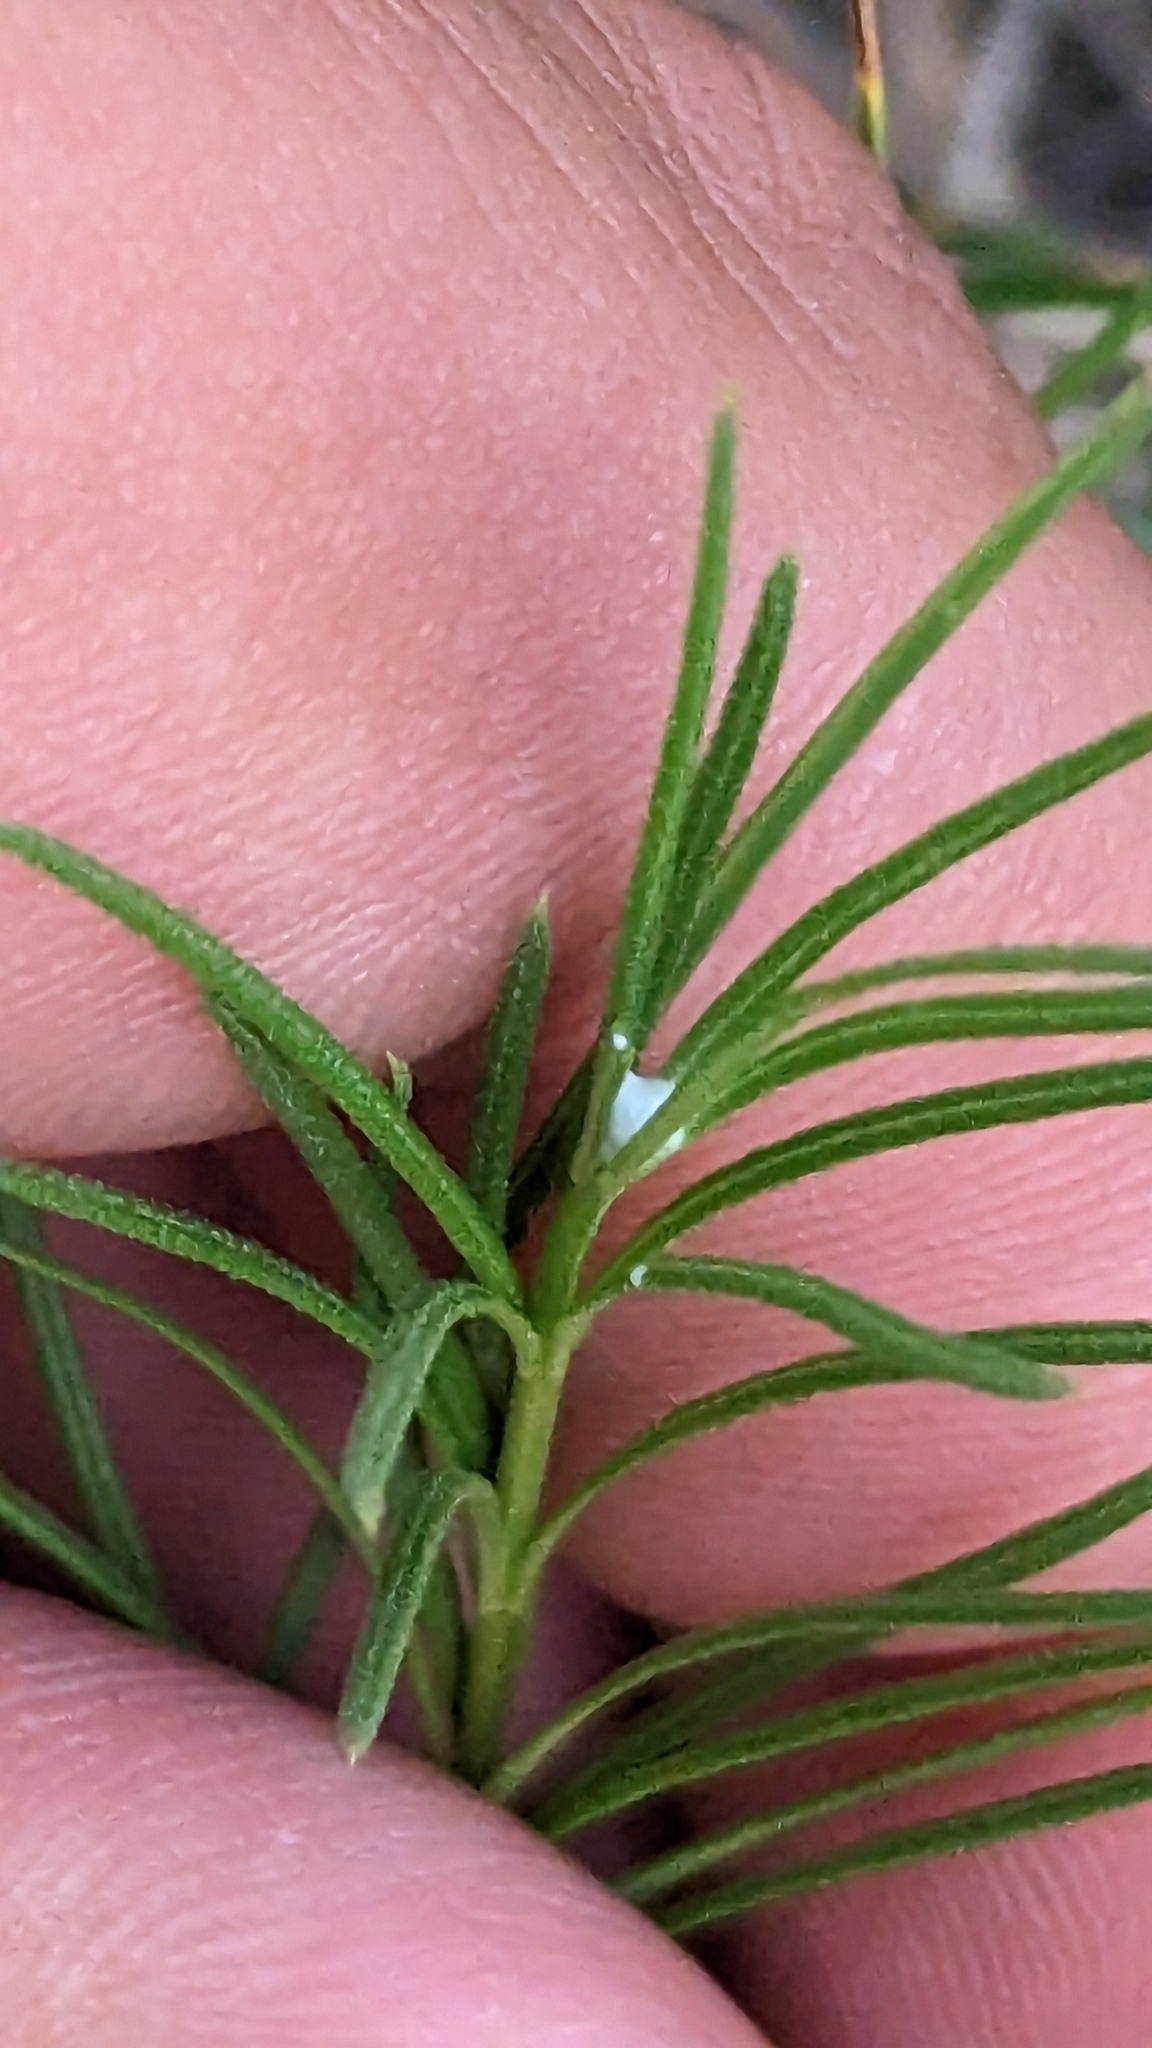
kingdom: Plantae
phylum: Tracheophyta
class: Magnoliopsida
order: Gentianales
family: Apocynaceae
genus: Asclepias
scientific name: Asclepias verticillata
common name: Eastern whorled milkweed
